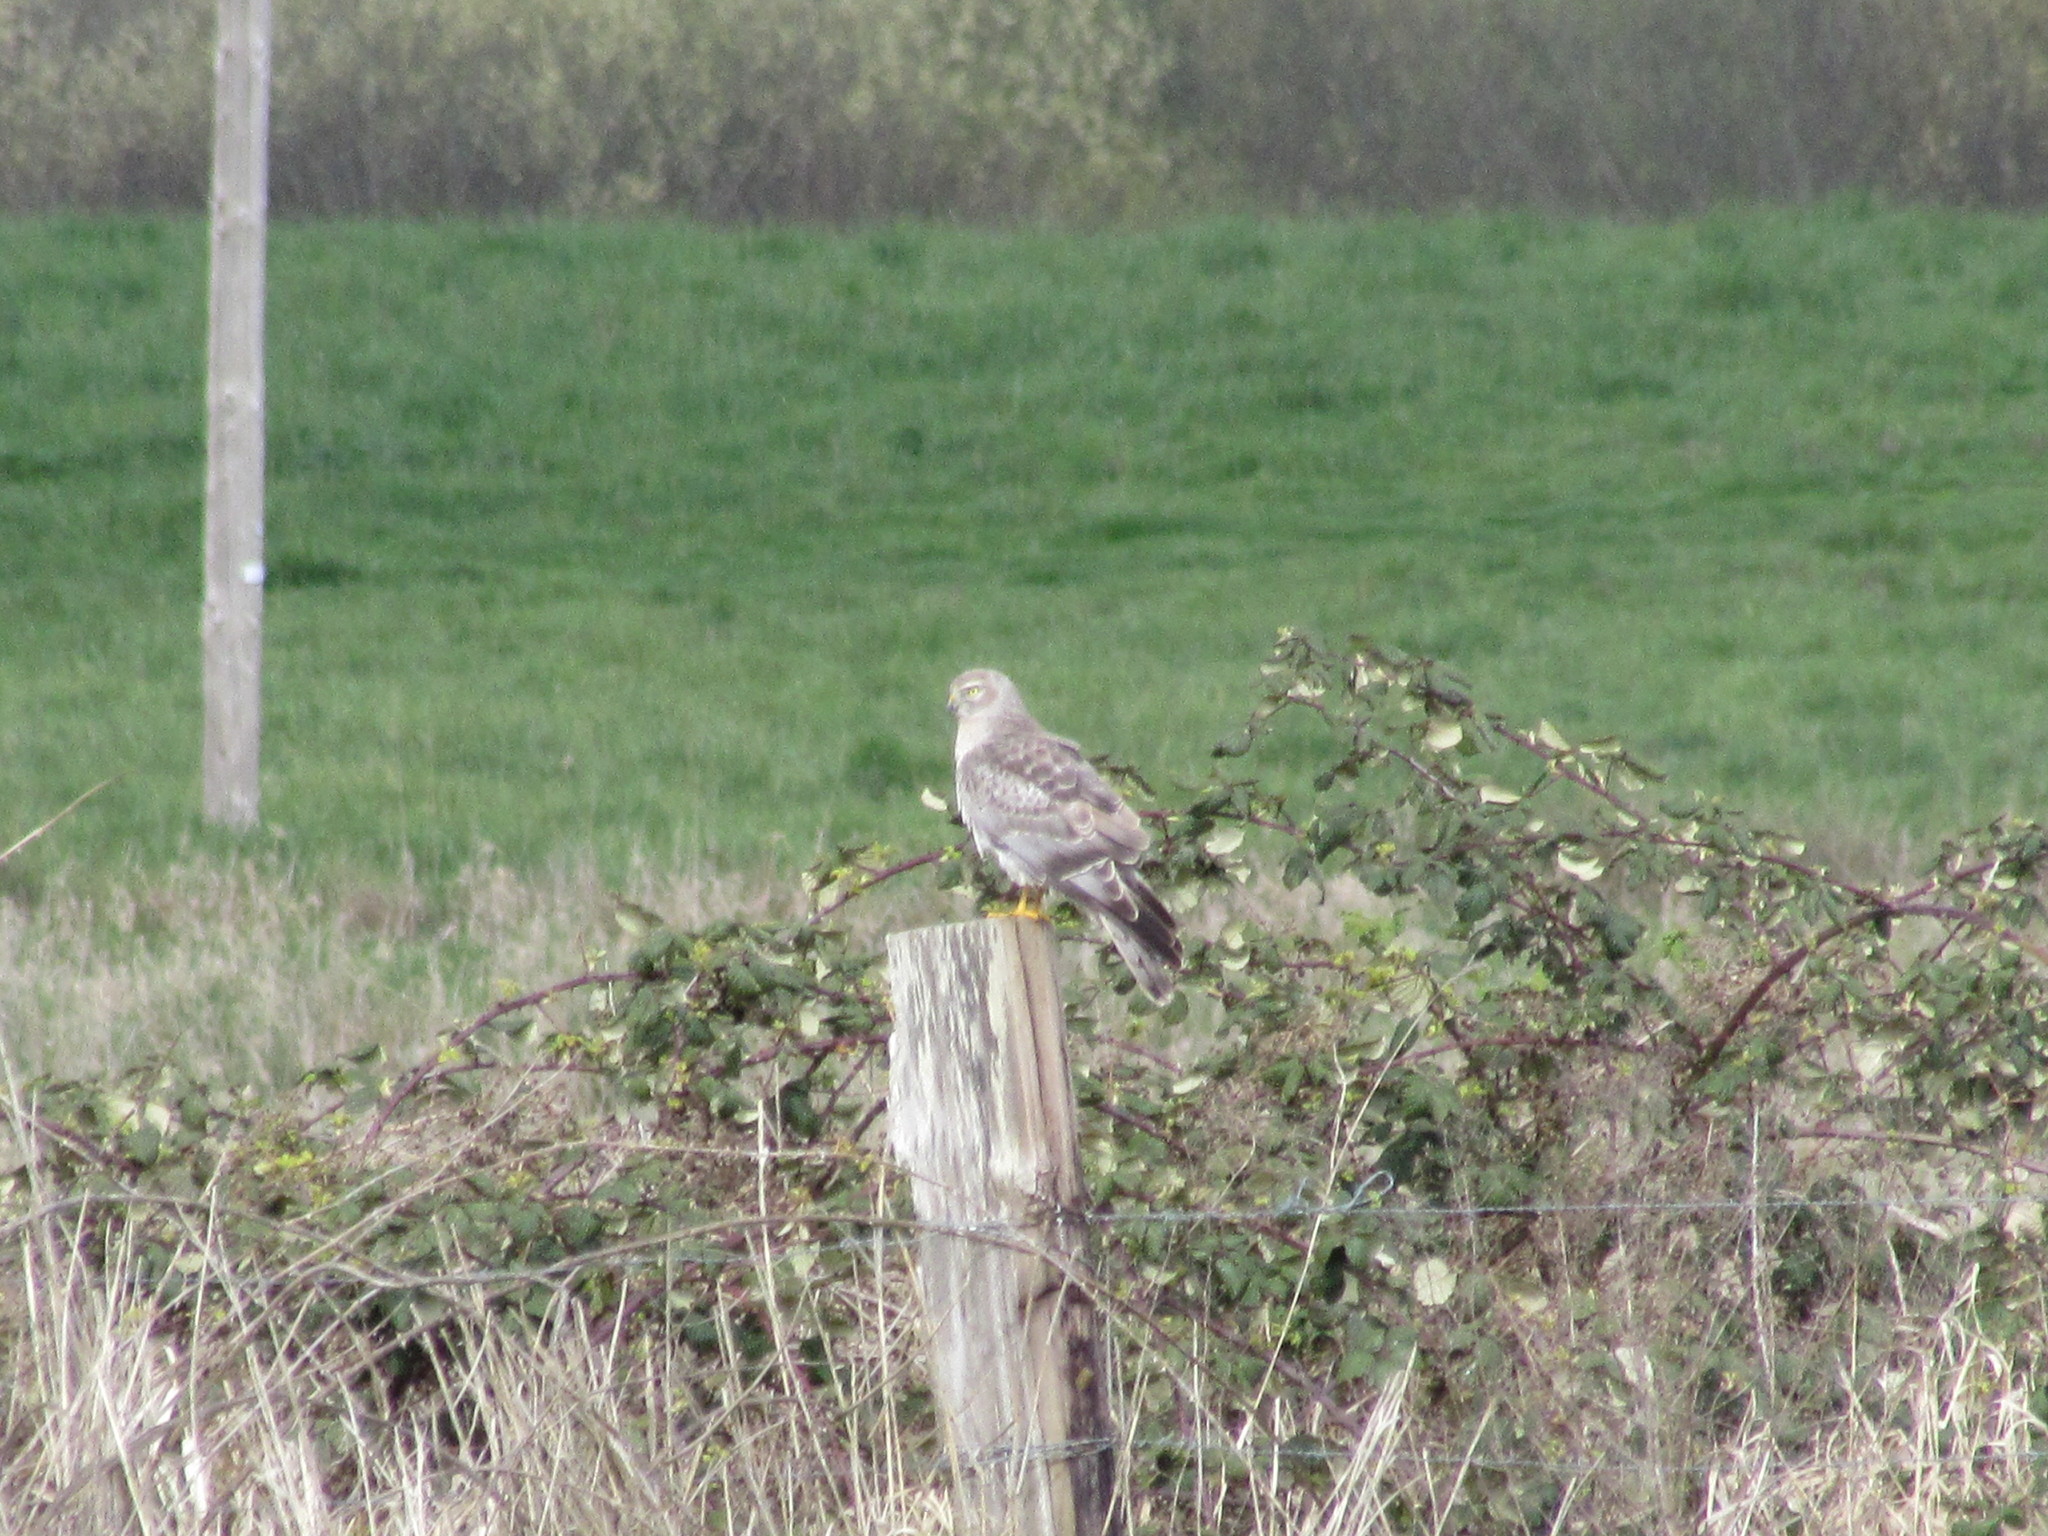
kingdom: Animalia
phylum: Chordata
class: Aves
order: Accipitriformes
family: Accipitridae
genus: Circus
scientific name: Circus cyaneus
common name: Hen harrier
